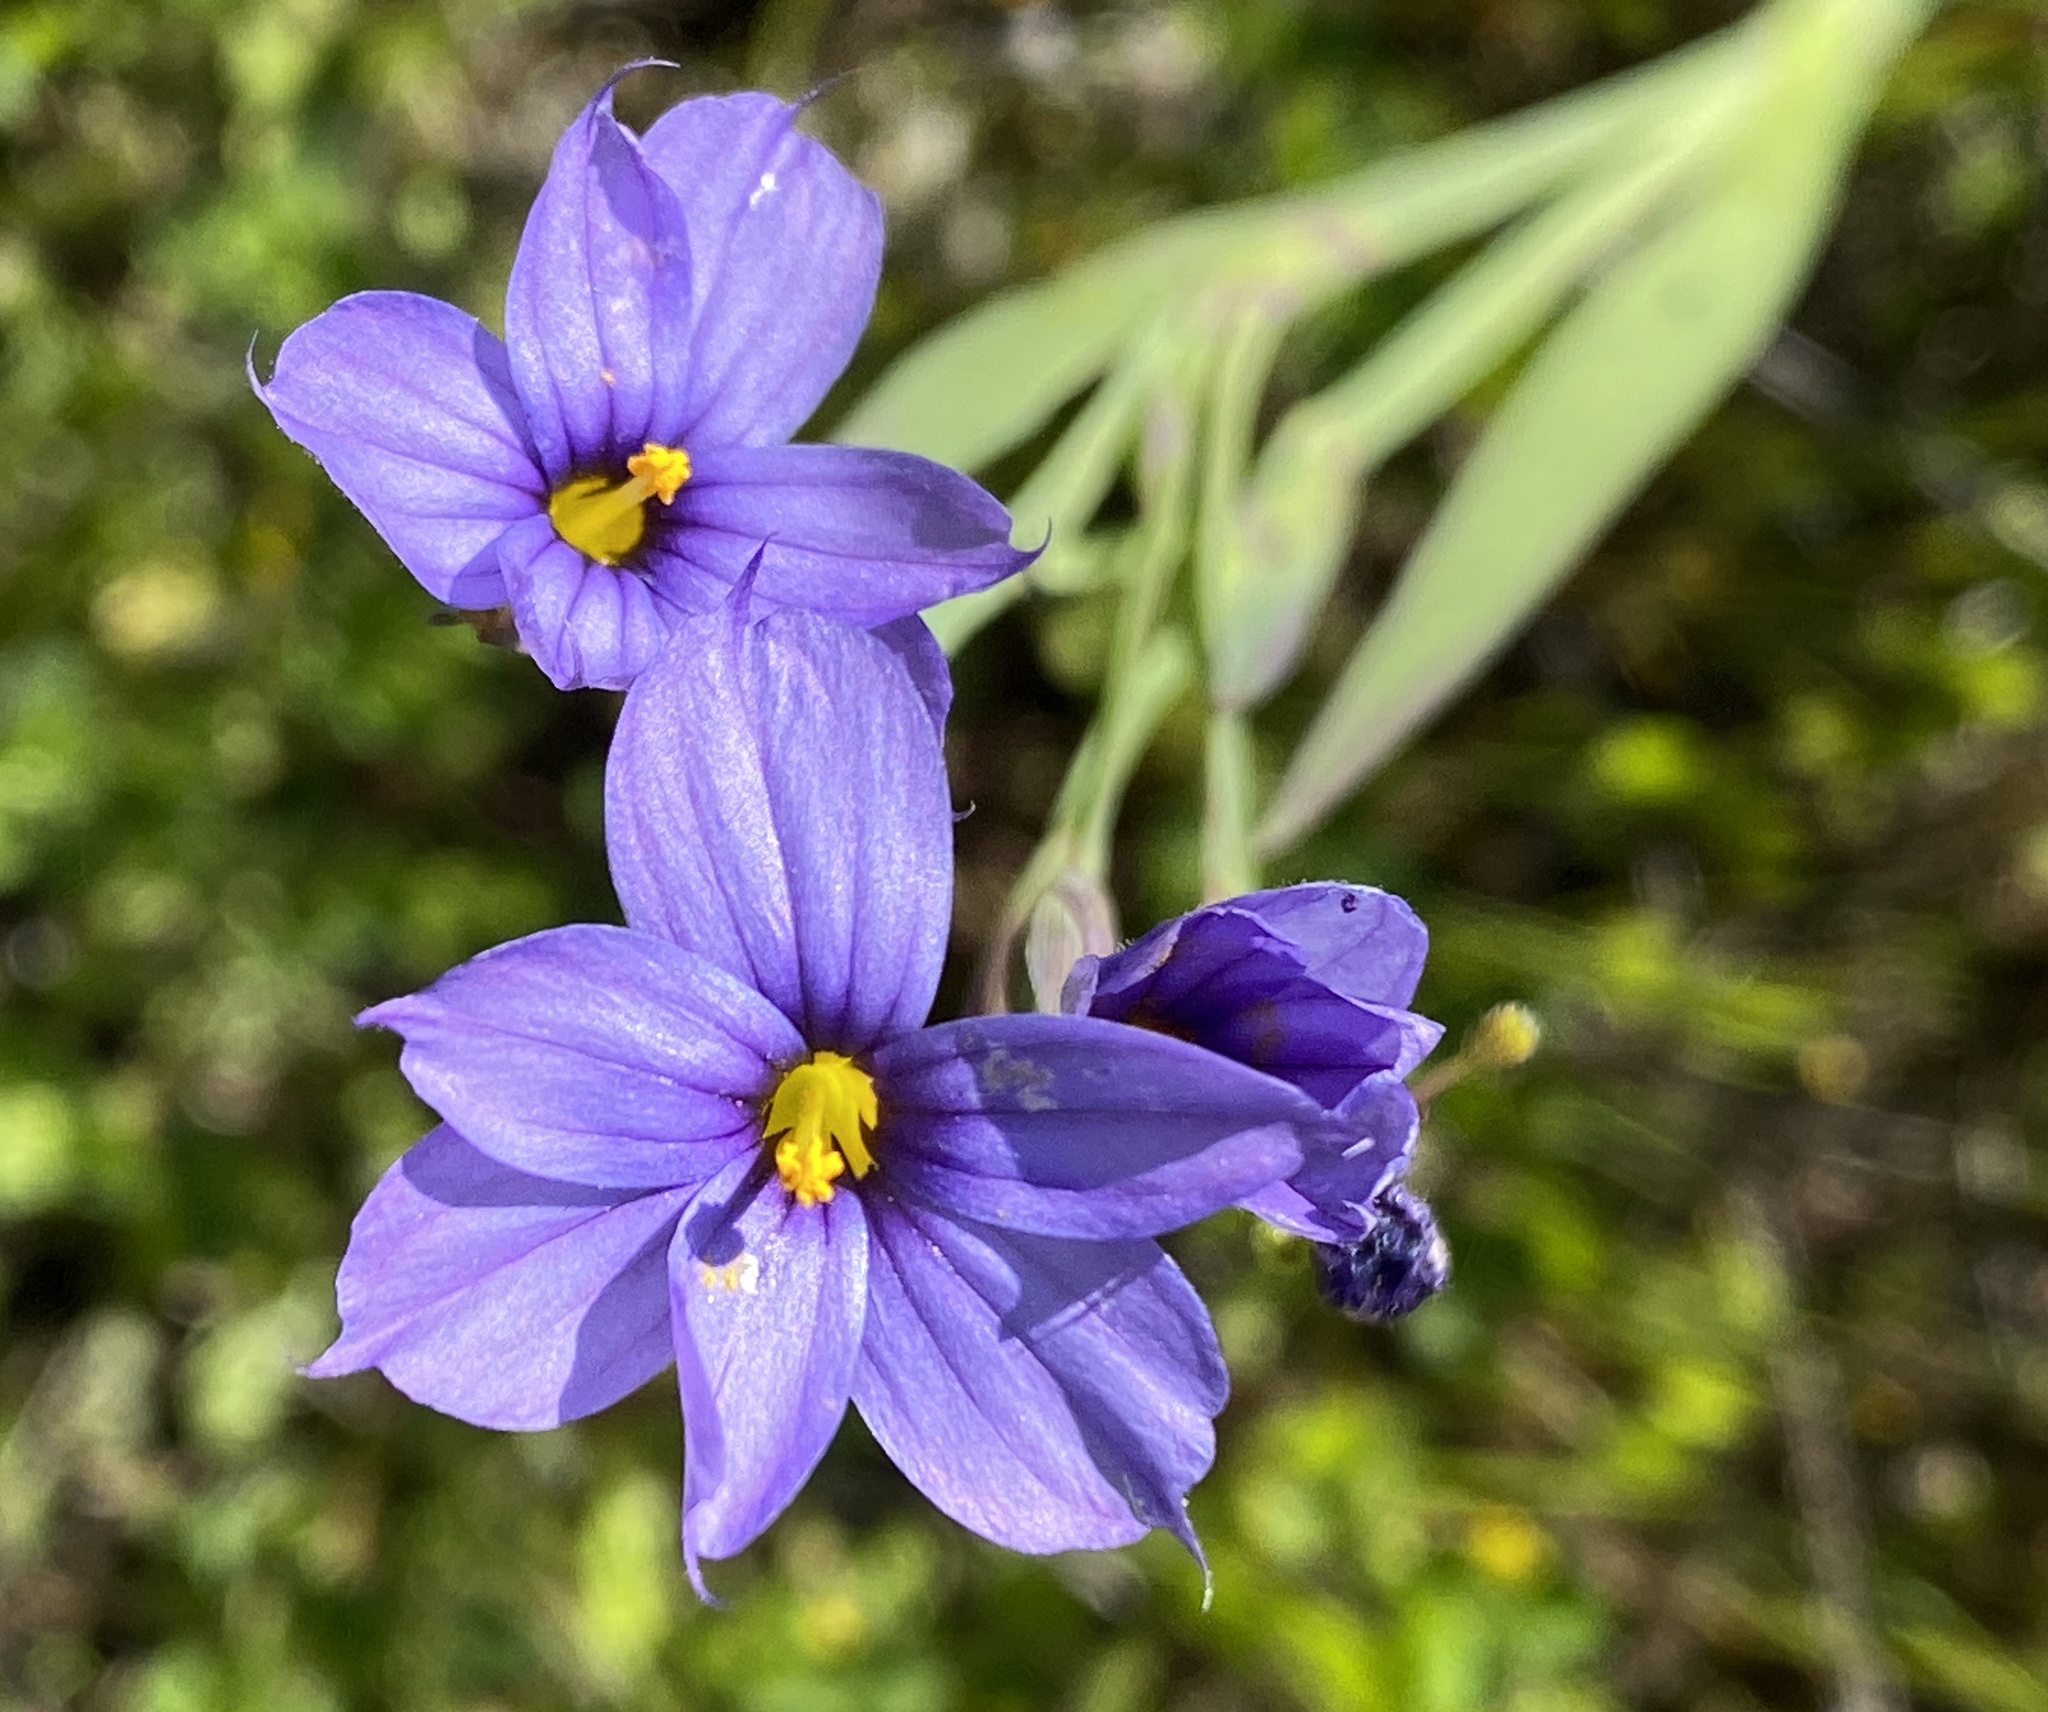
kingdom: Plantae
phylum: Tracheophyta
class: Liliopsida
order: Asparagales
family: Iridaceae
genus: Sisyrinchium
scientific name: Sisyrinchium bellum
